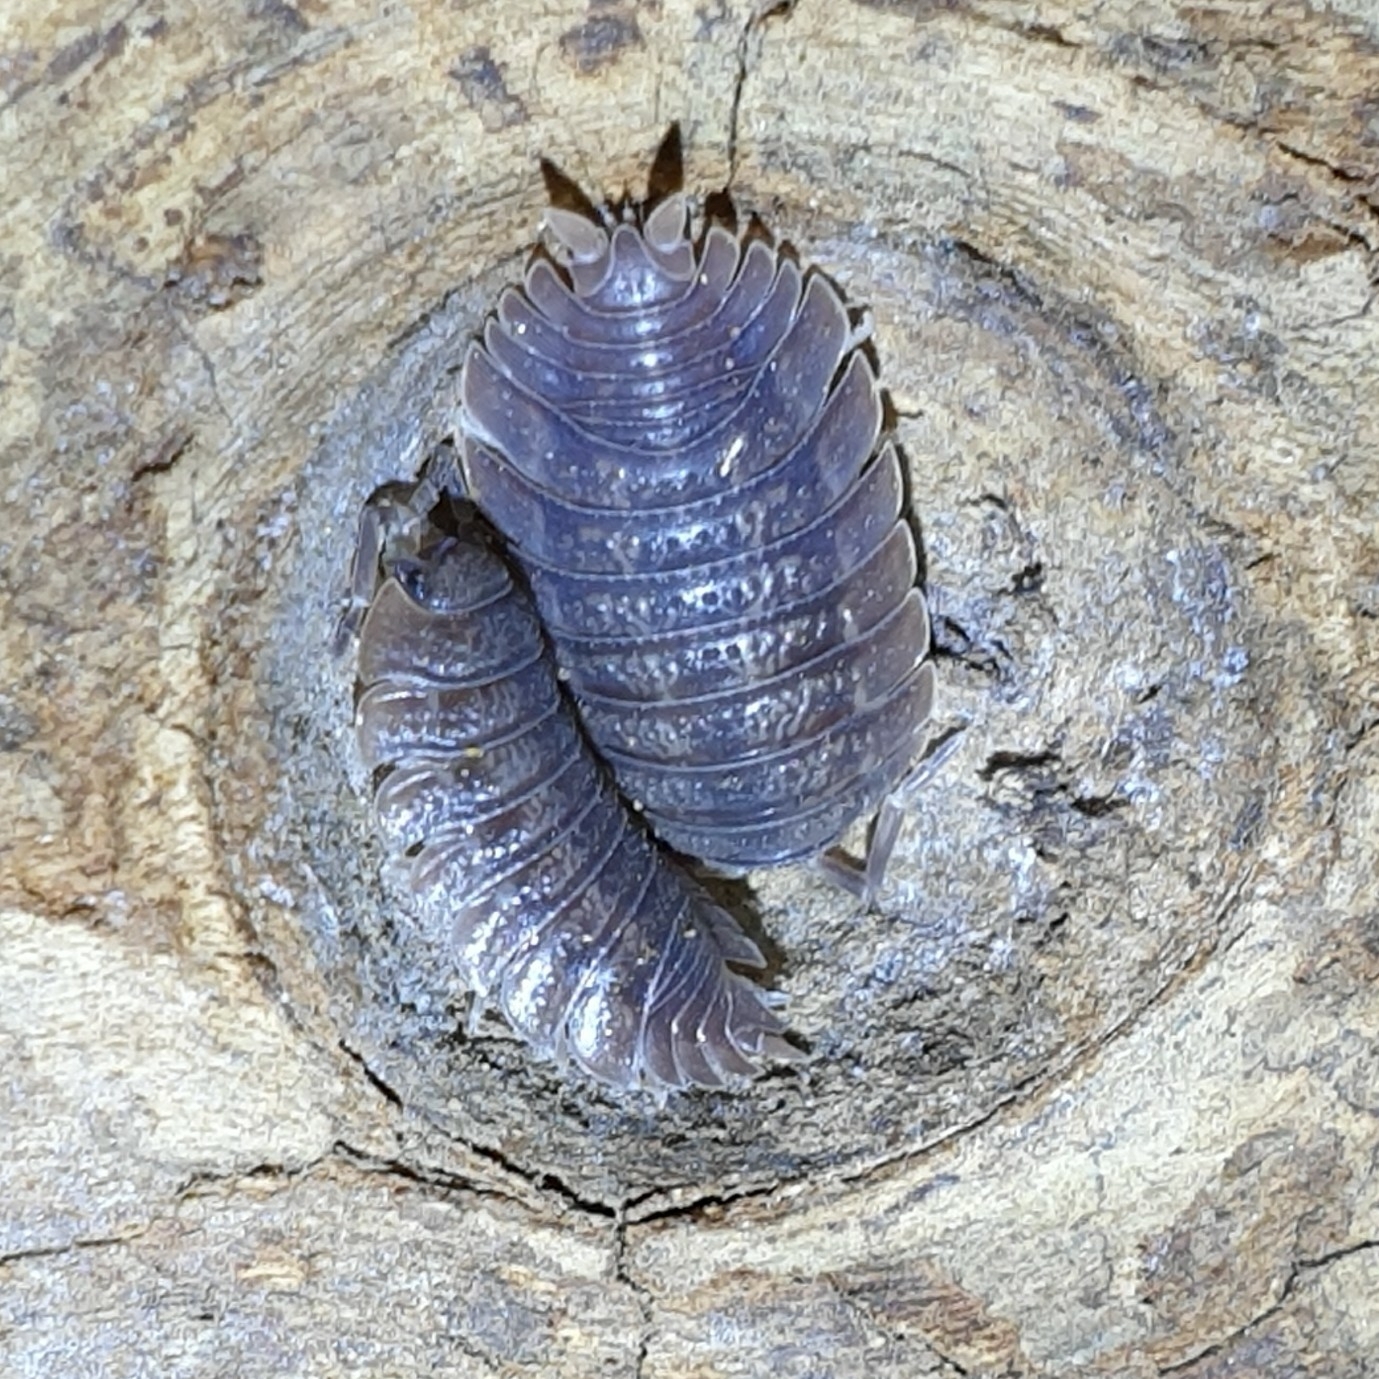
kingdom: Animalia
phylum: Arthropoda
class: Malacostraca
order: Isopoda
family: Porcellionidae
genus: Porcellio
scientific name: Porcellio dilatatus
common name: Isopod
